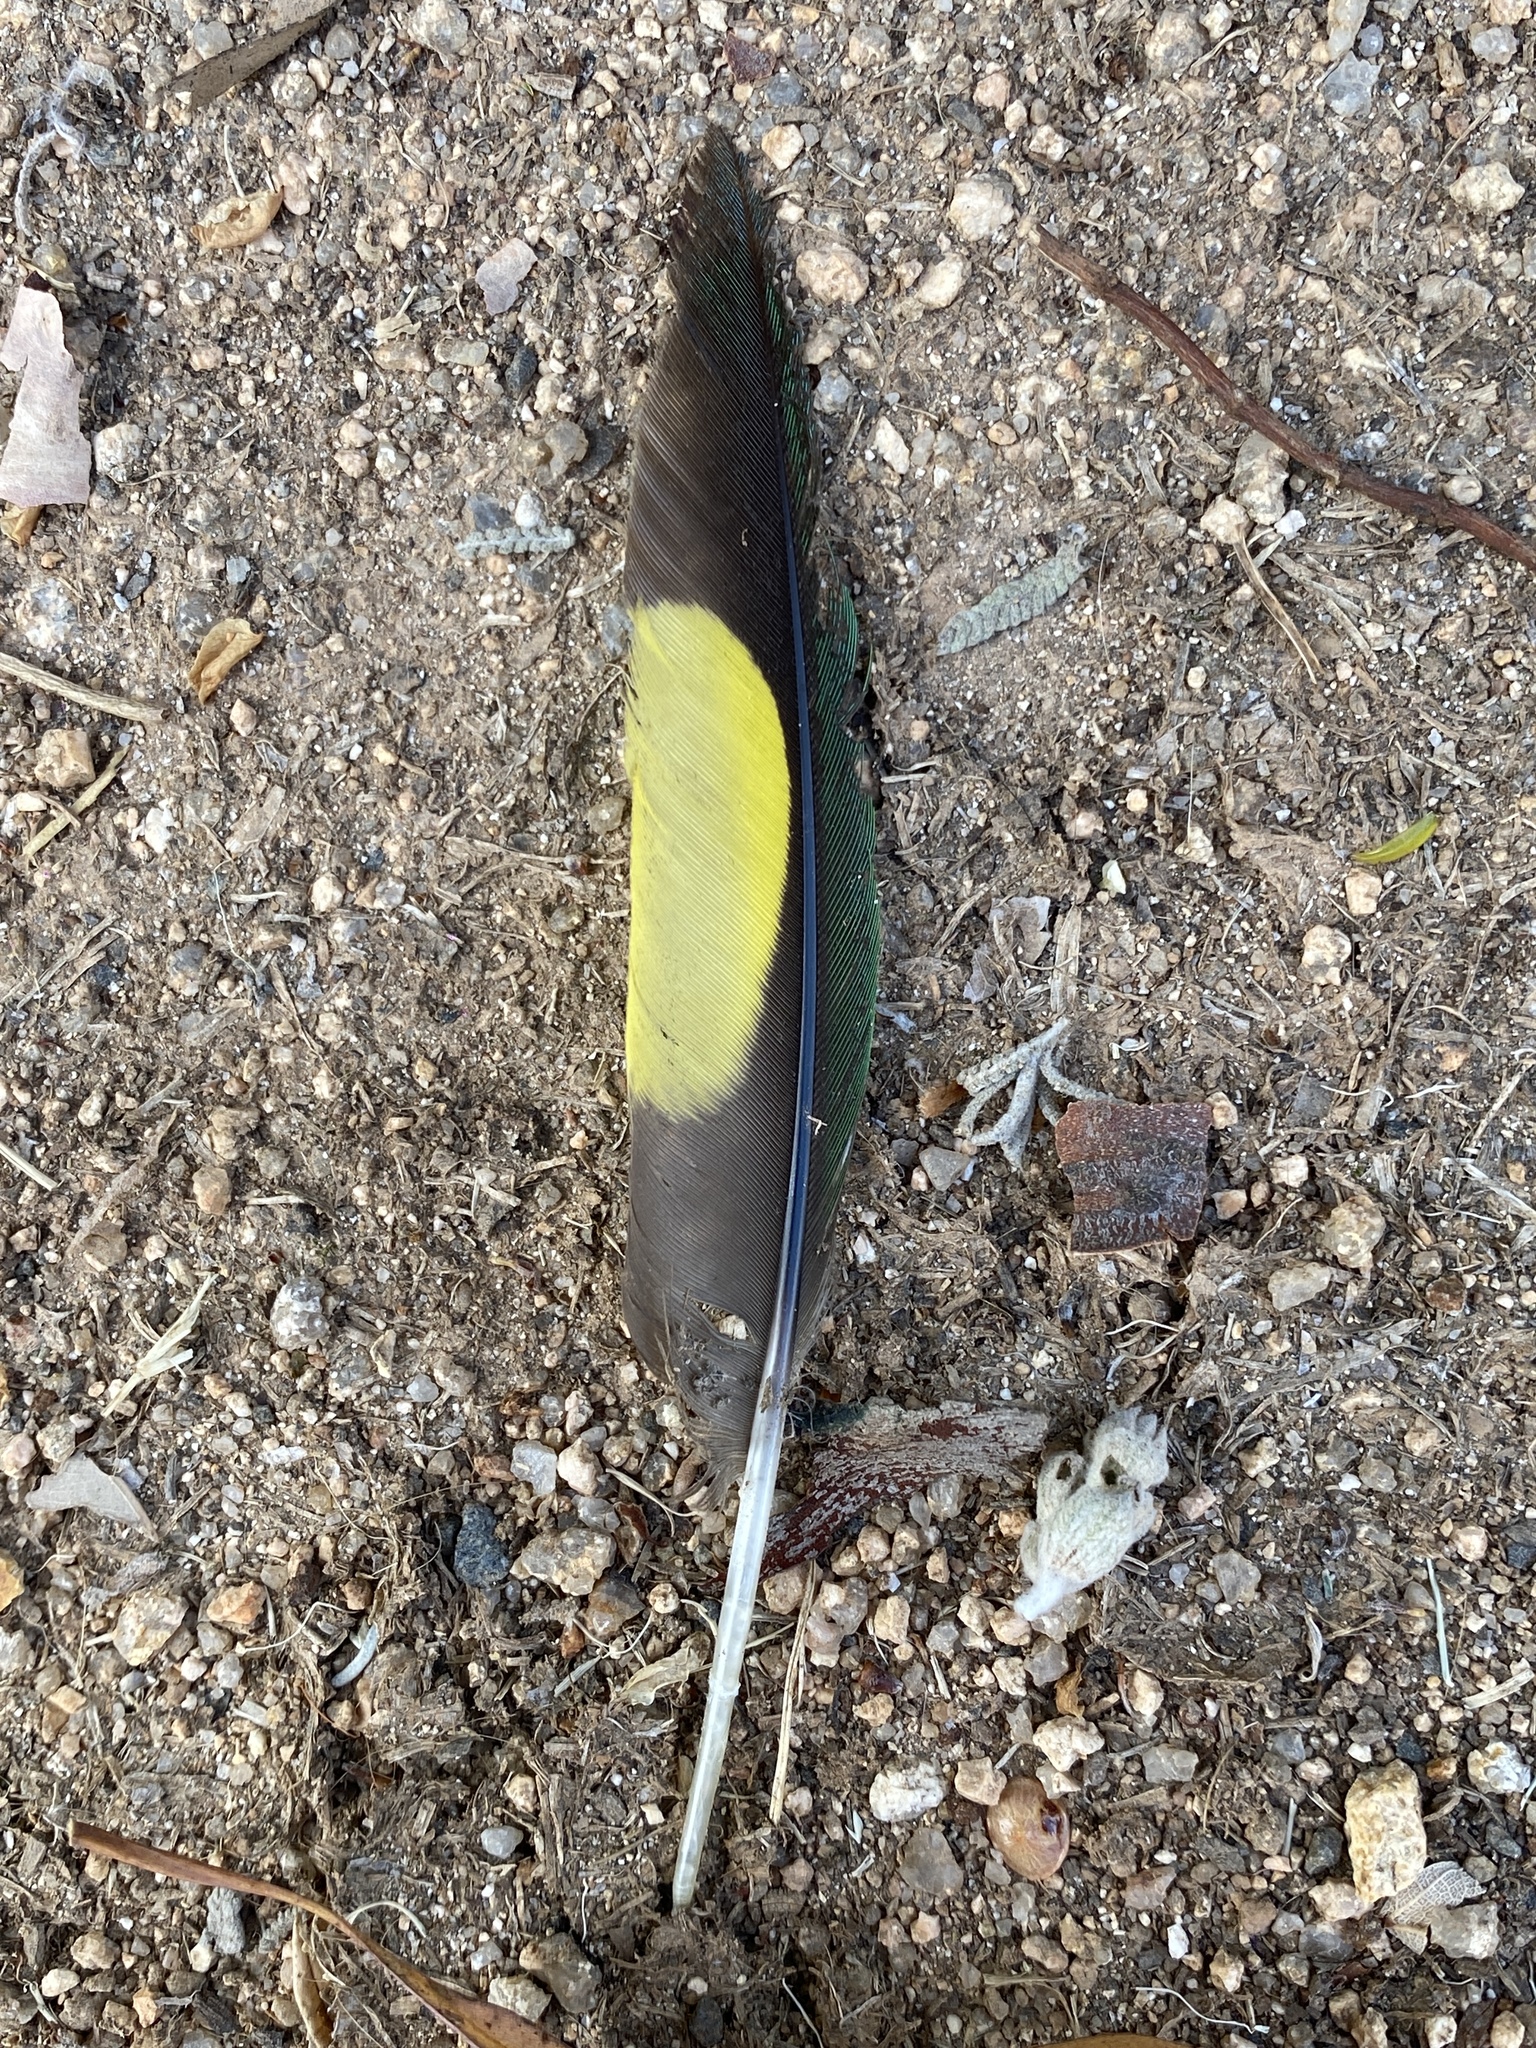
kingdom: Animalia
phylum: Chordata
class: Aves
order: Psittaciformes
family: Psittacidae
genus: Trichoglossus
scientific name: Trichoglossus haematodus
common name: Coconut lorikeet
